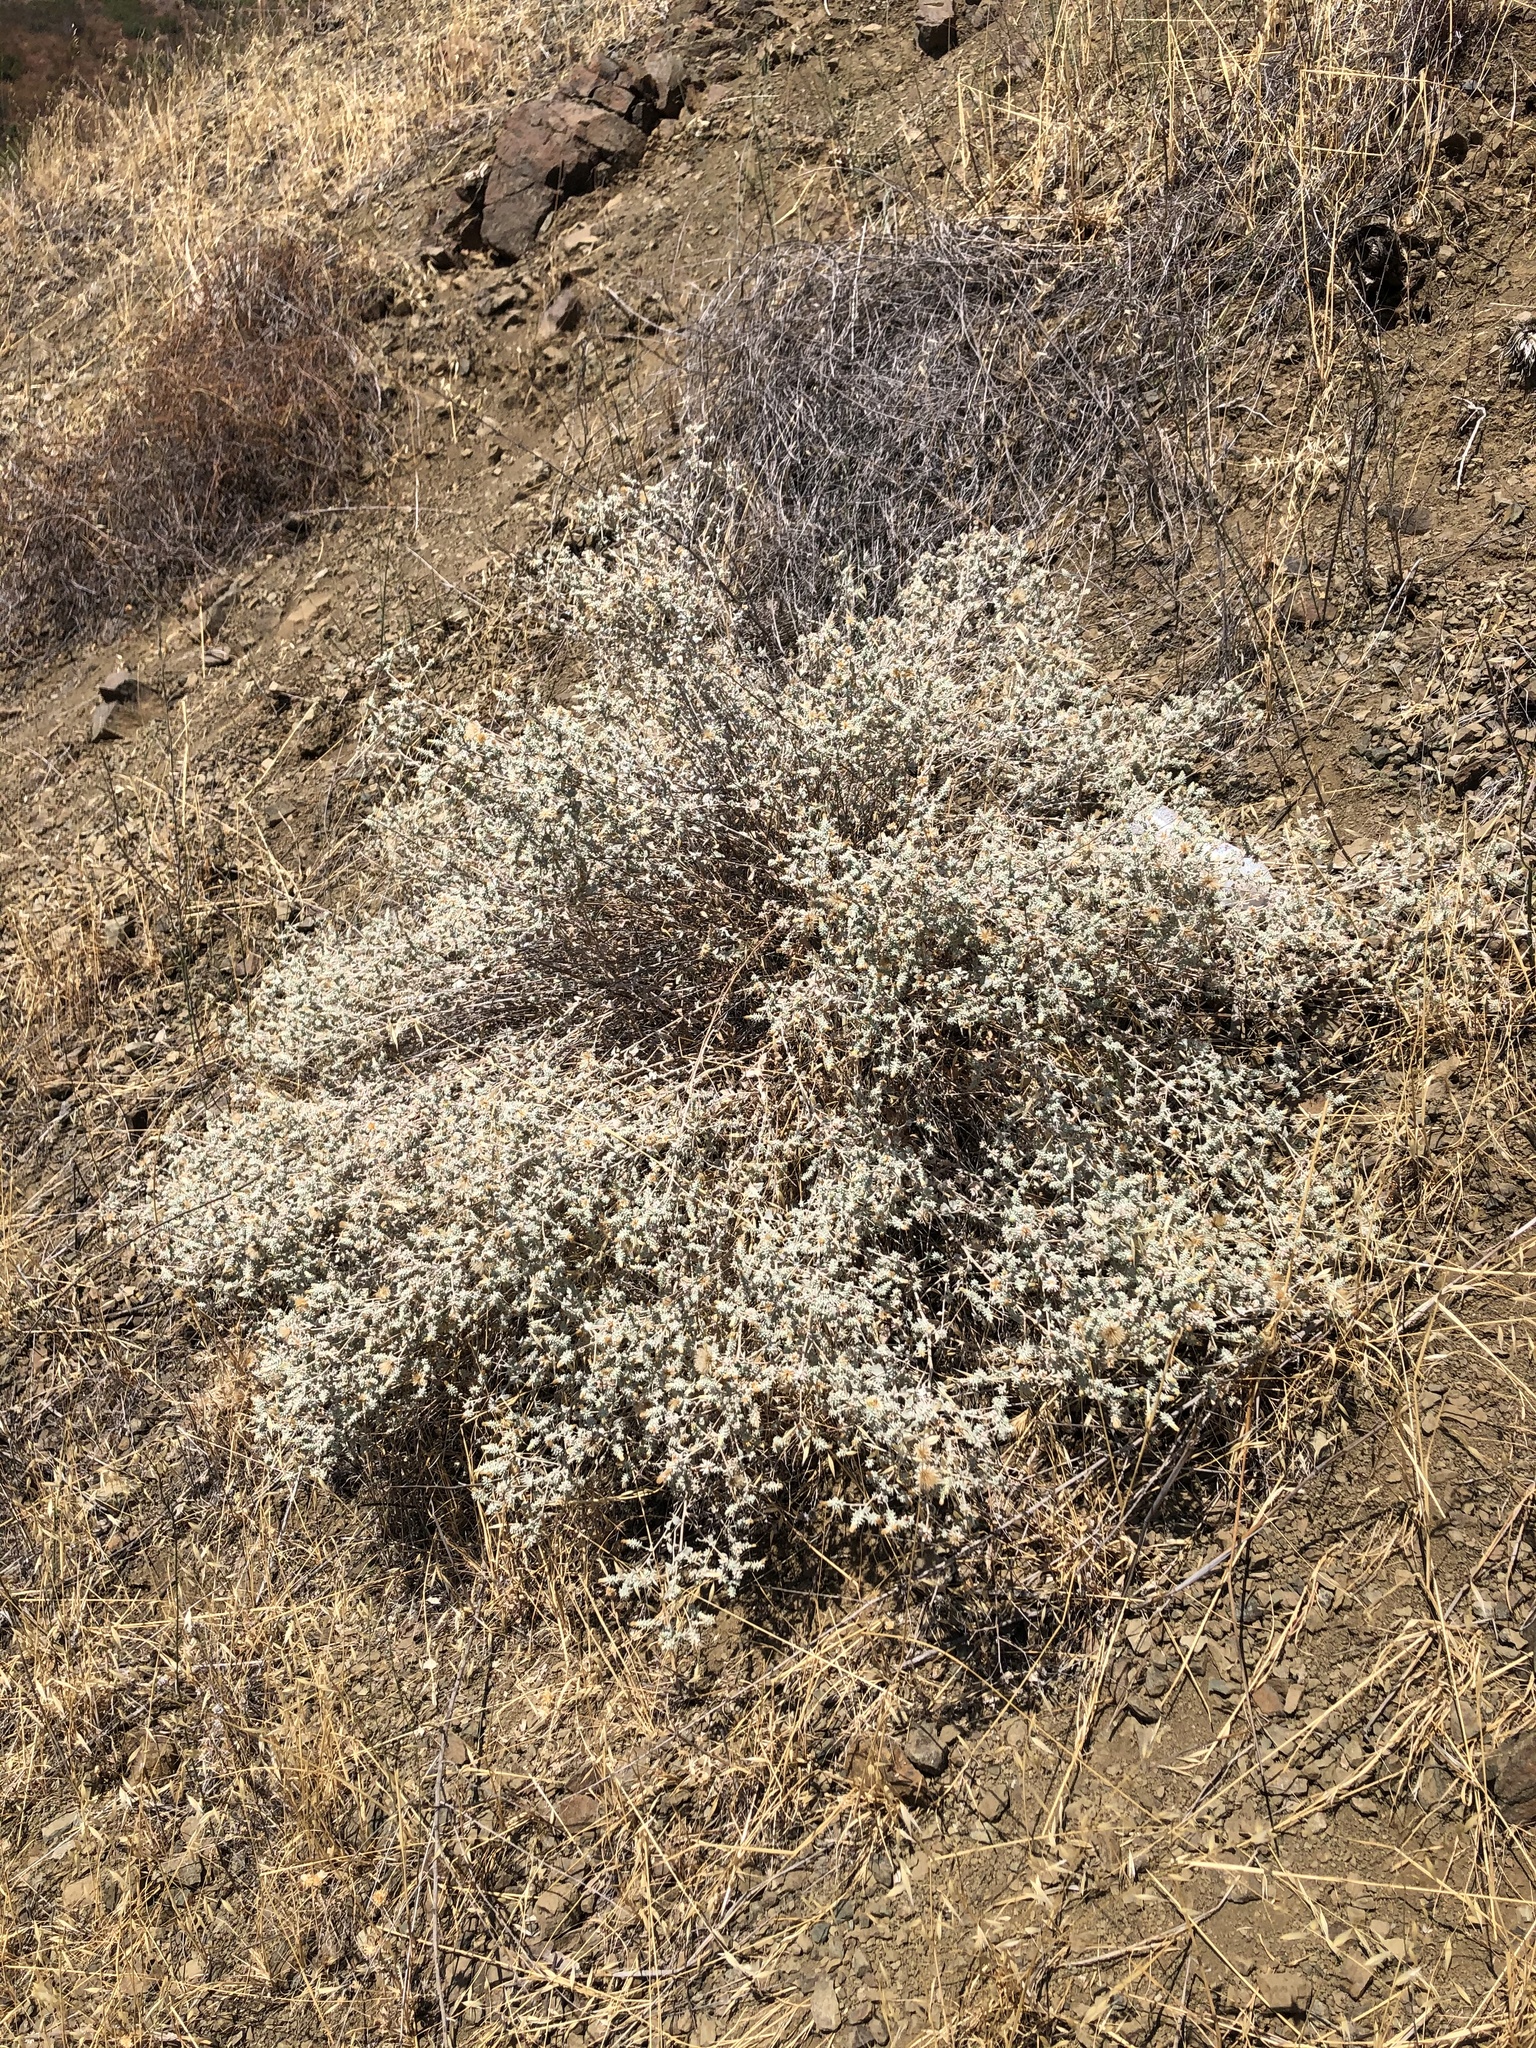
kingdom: Plantae
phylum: Tracheophyta
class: Magnoliopsida
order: Asterales
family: Asteraceae
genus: Brickellia
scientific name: Brickellia nevinii
